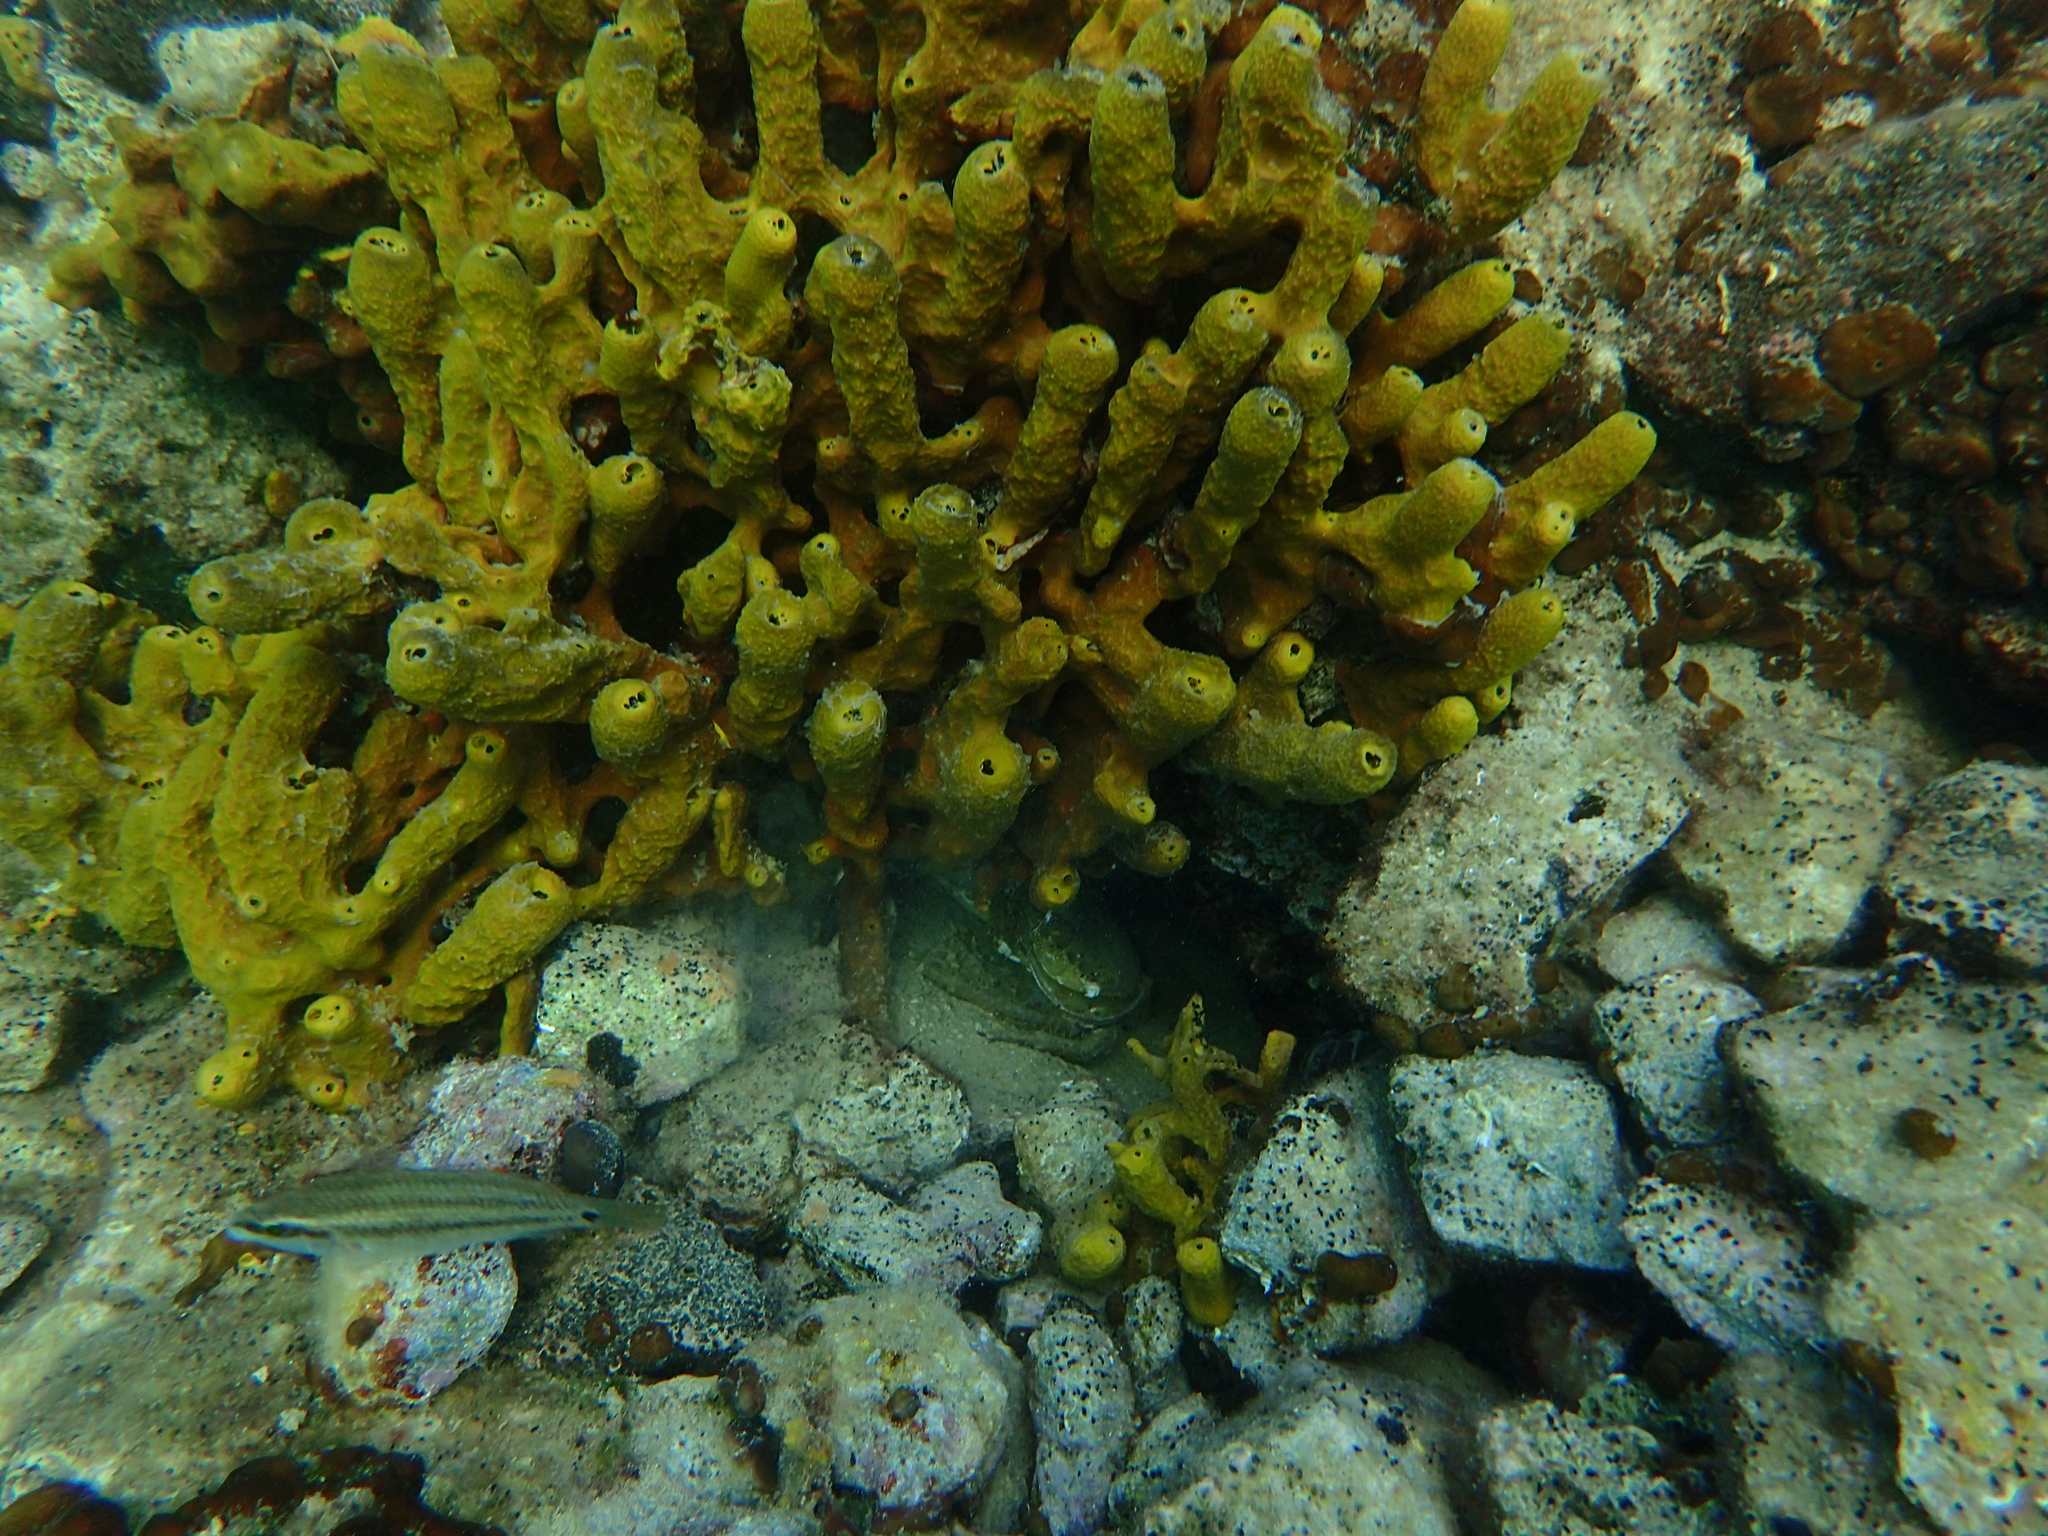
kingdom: Animalia
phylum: Porifera
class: Demospongiae
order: Verongiida
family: Aplysinidae
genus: Aplysina
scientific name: Aplysina aerophoba
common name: Aureate sponge
